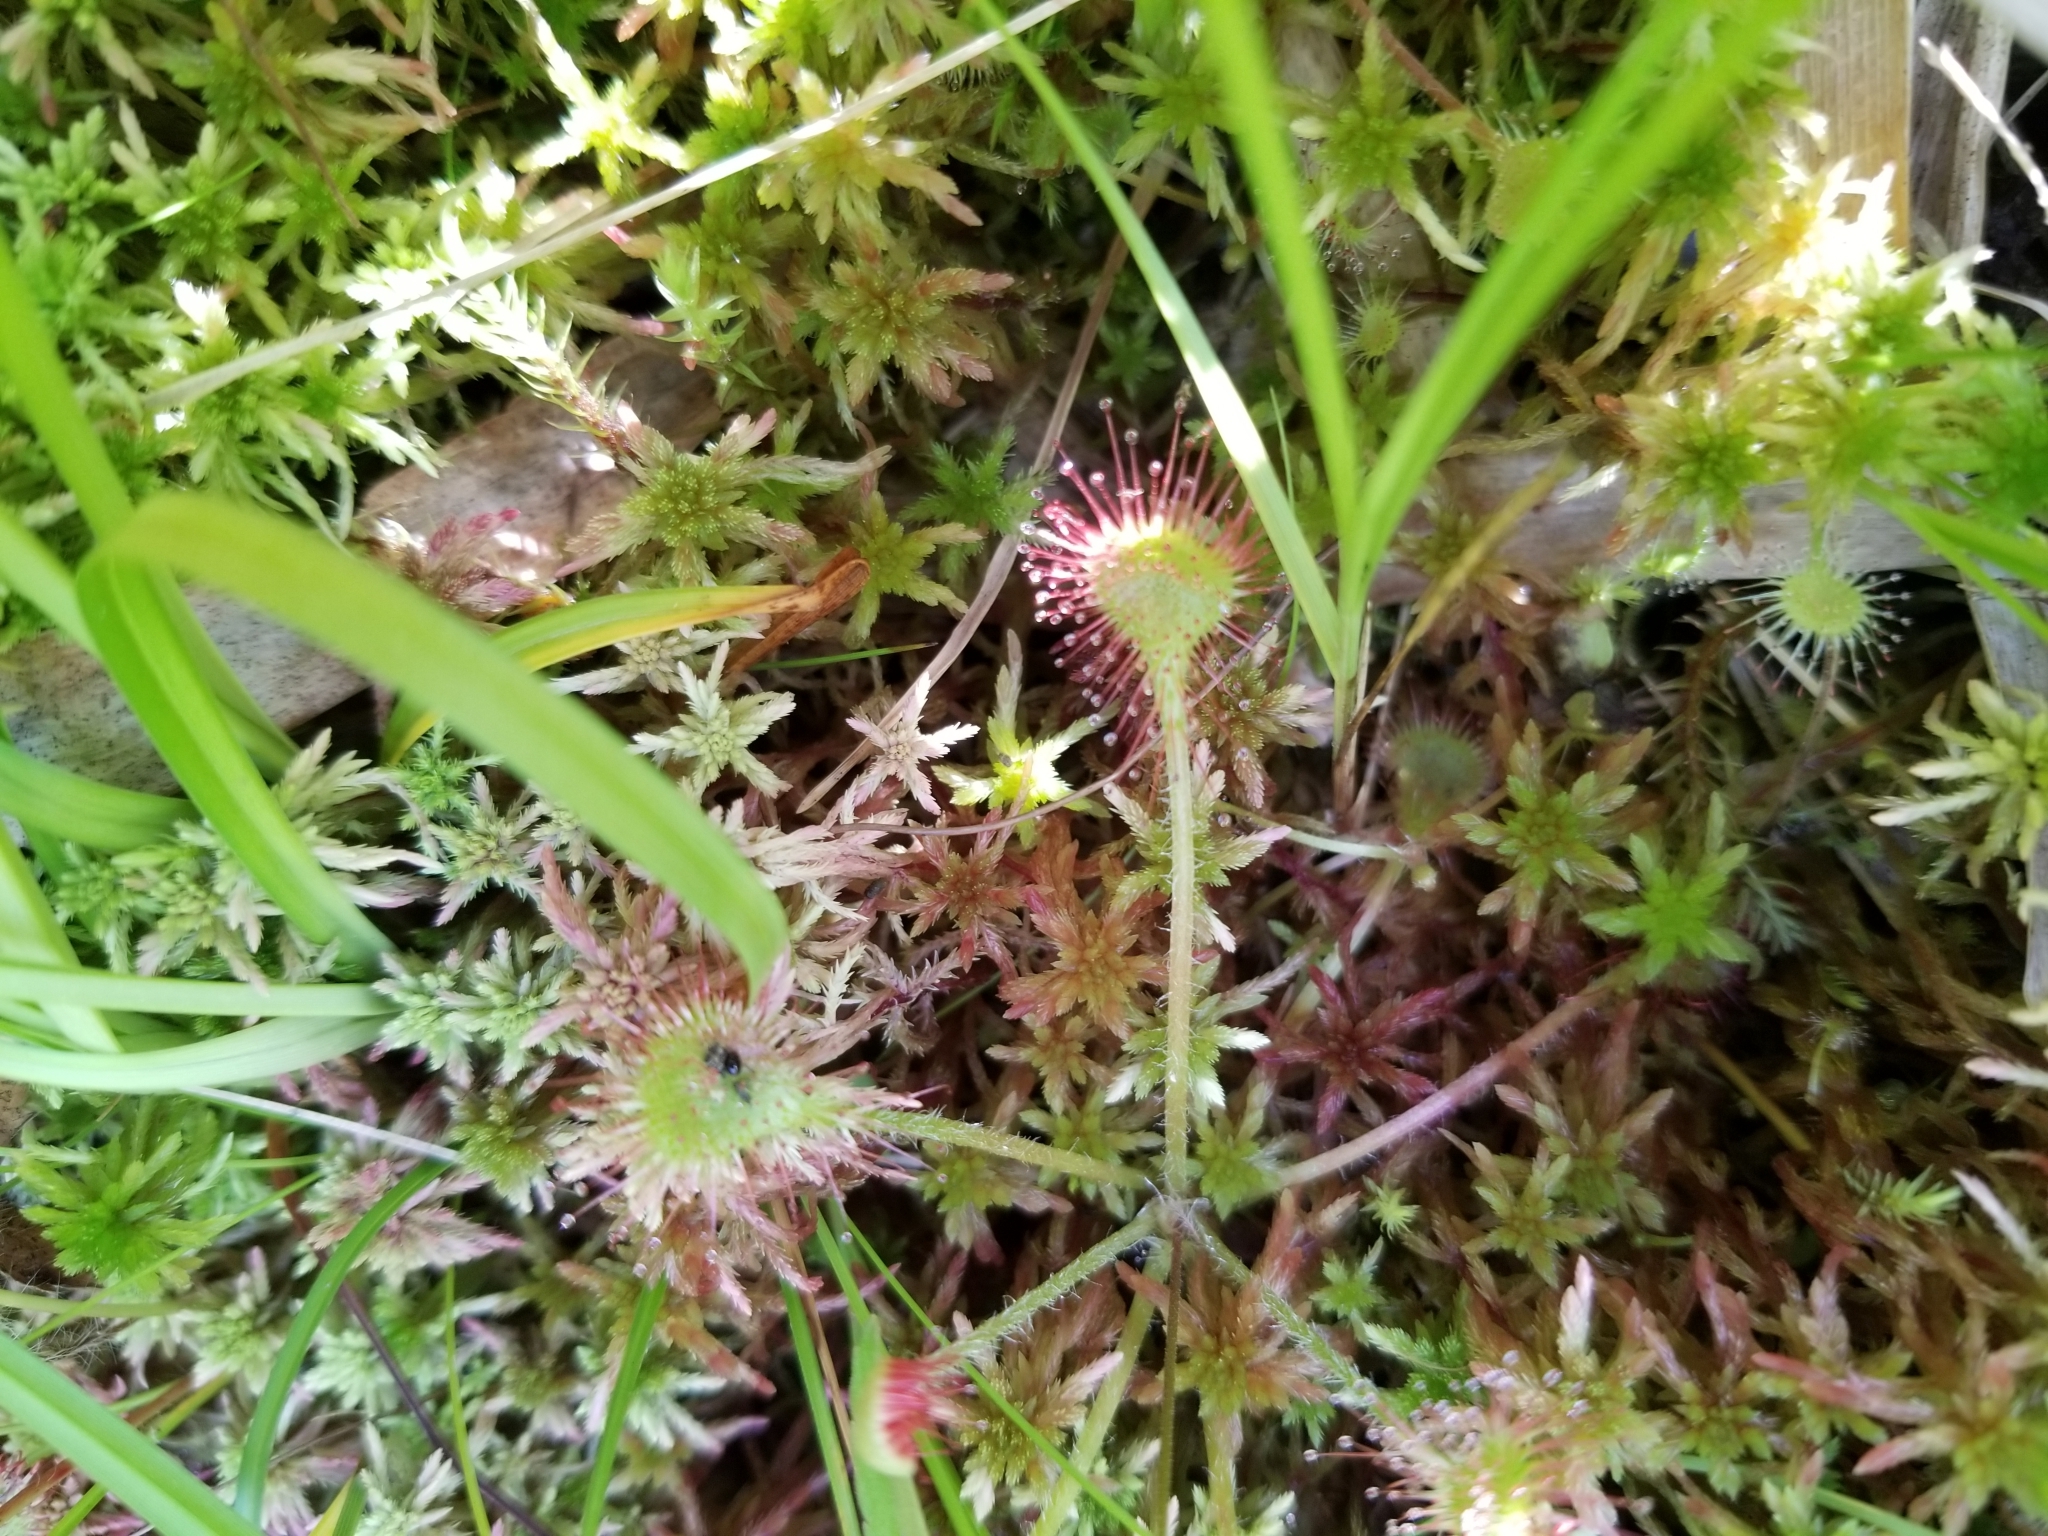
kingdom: Plantae
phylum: Tracheophyta
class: Magnoliopsida
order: Caryophyllales
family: Droseraceae
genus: Drosera
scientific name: Drosera rotundifolia
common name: Round-leaved sundew
